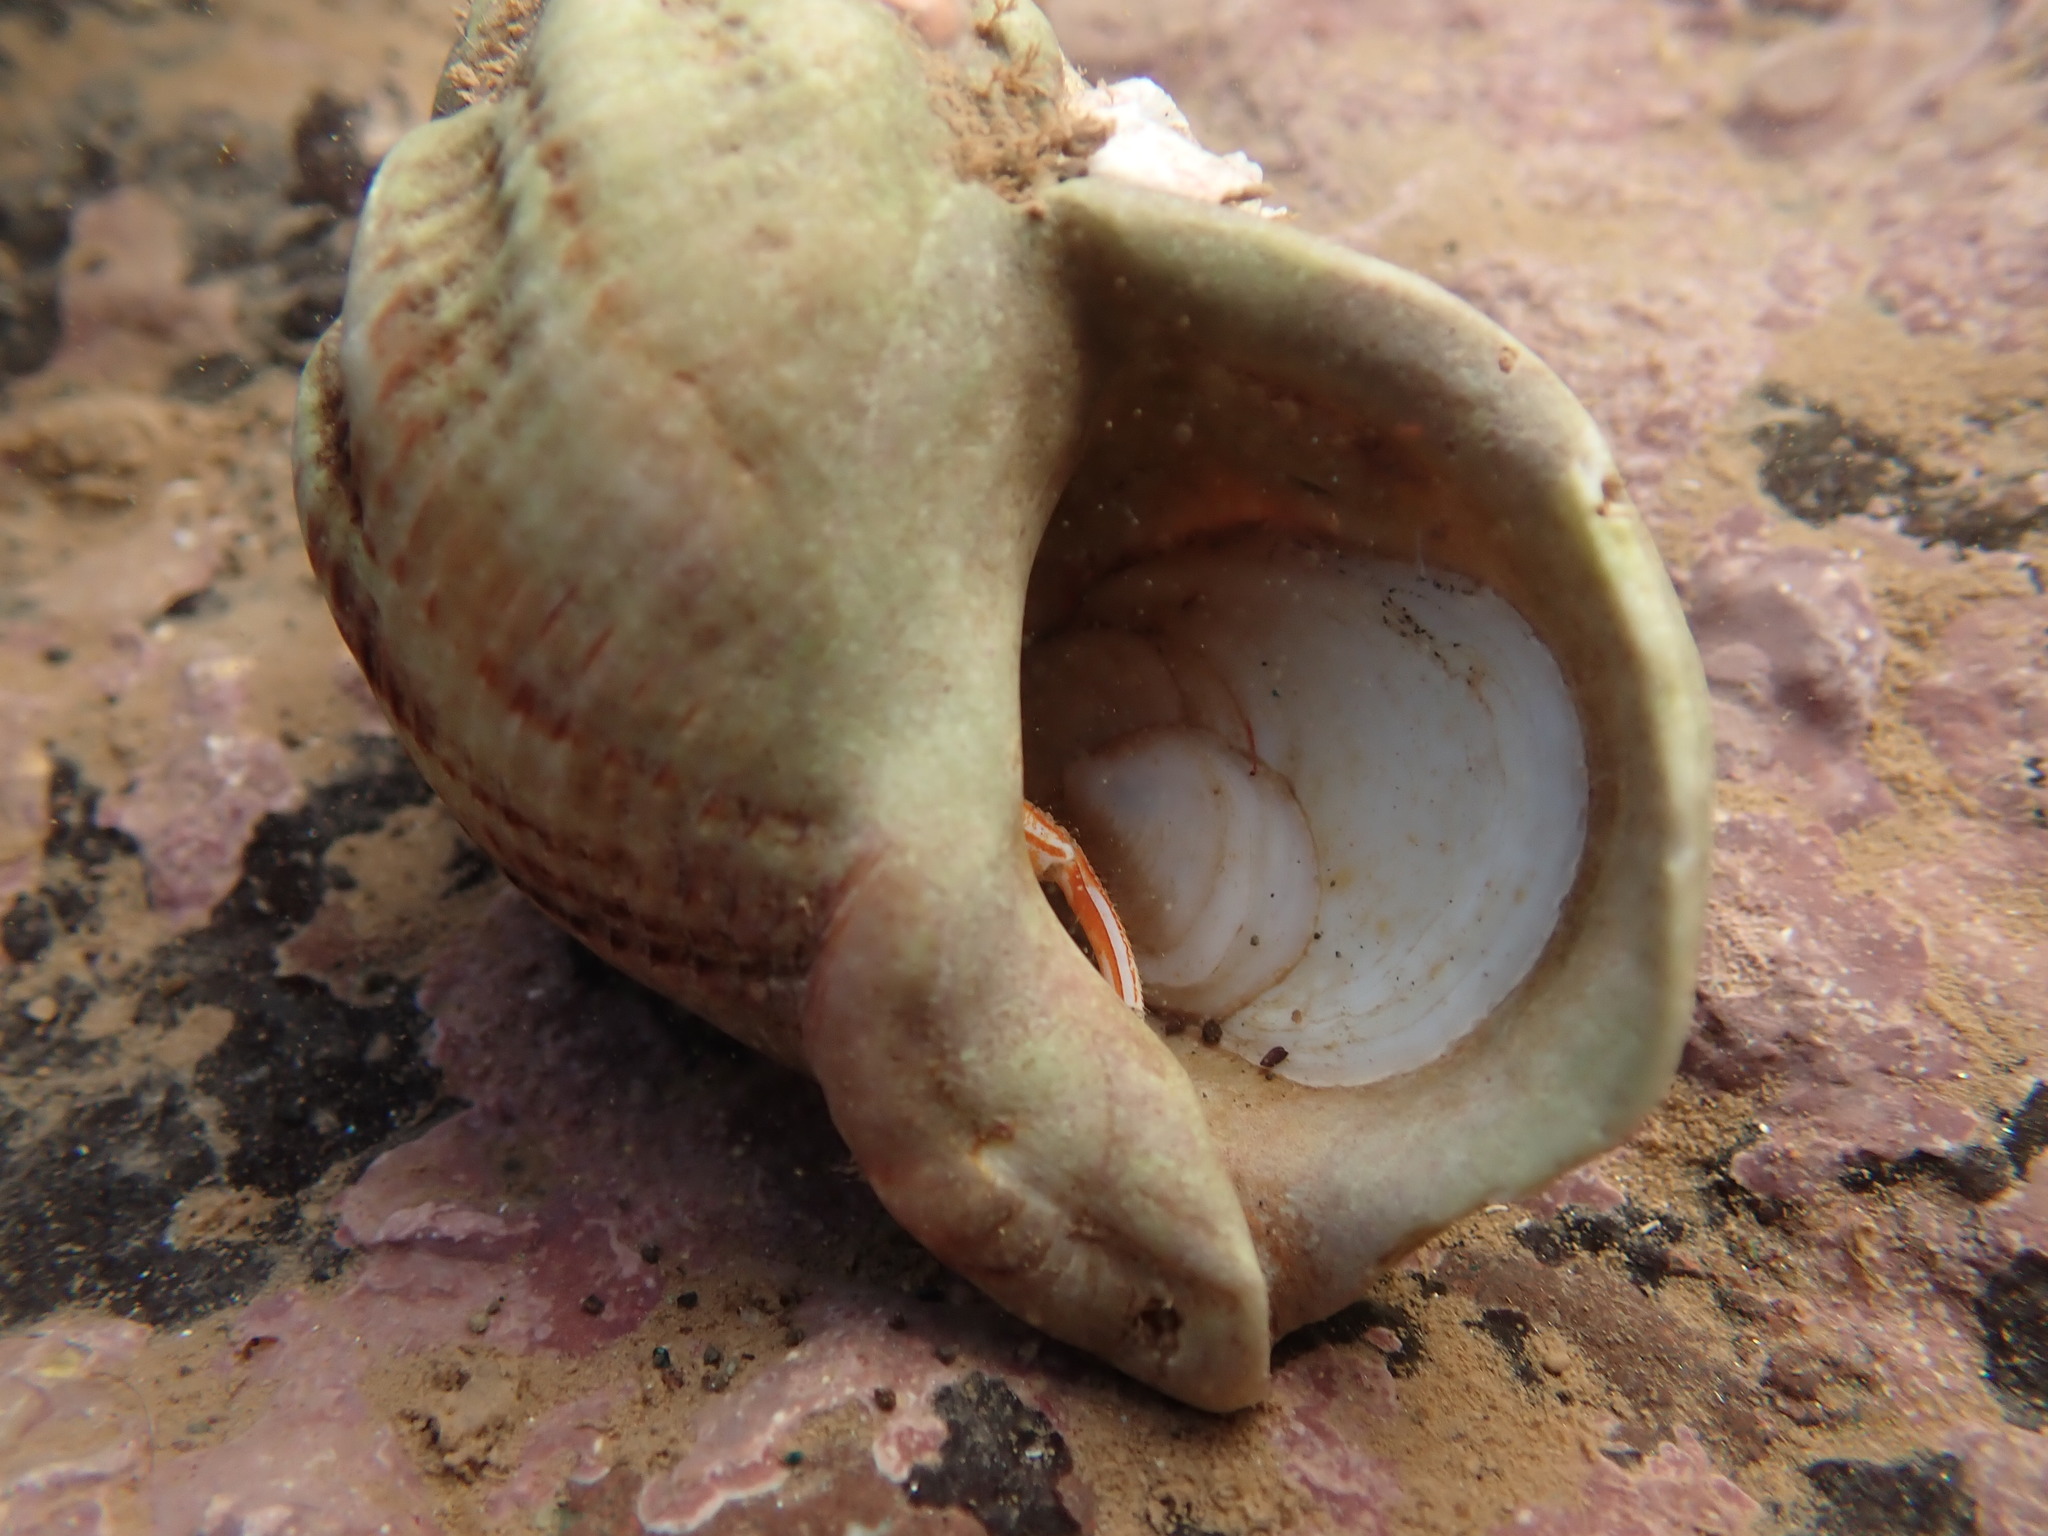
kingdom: Animalia
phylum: Mollusca
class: Gastropoda
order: Littorinimorpha
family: Calyptraeidae
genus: Crepidula
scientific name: Crepidula plana
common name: Eastern white slippersnail
